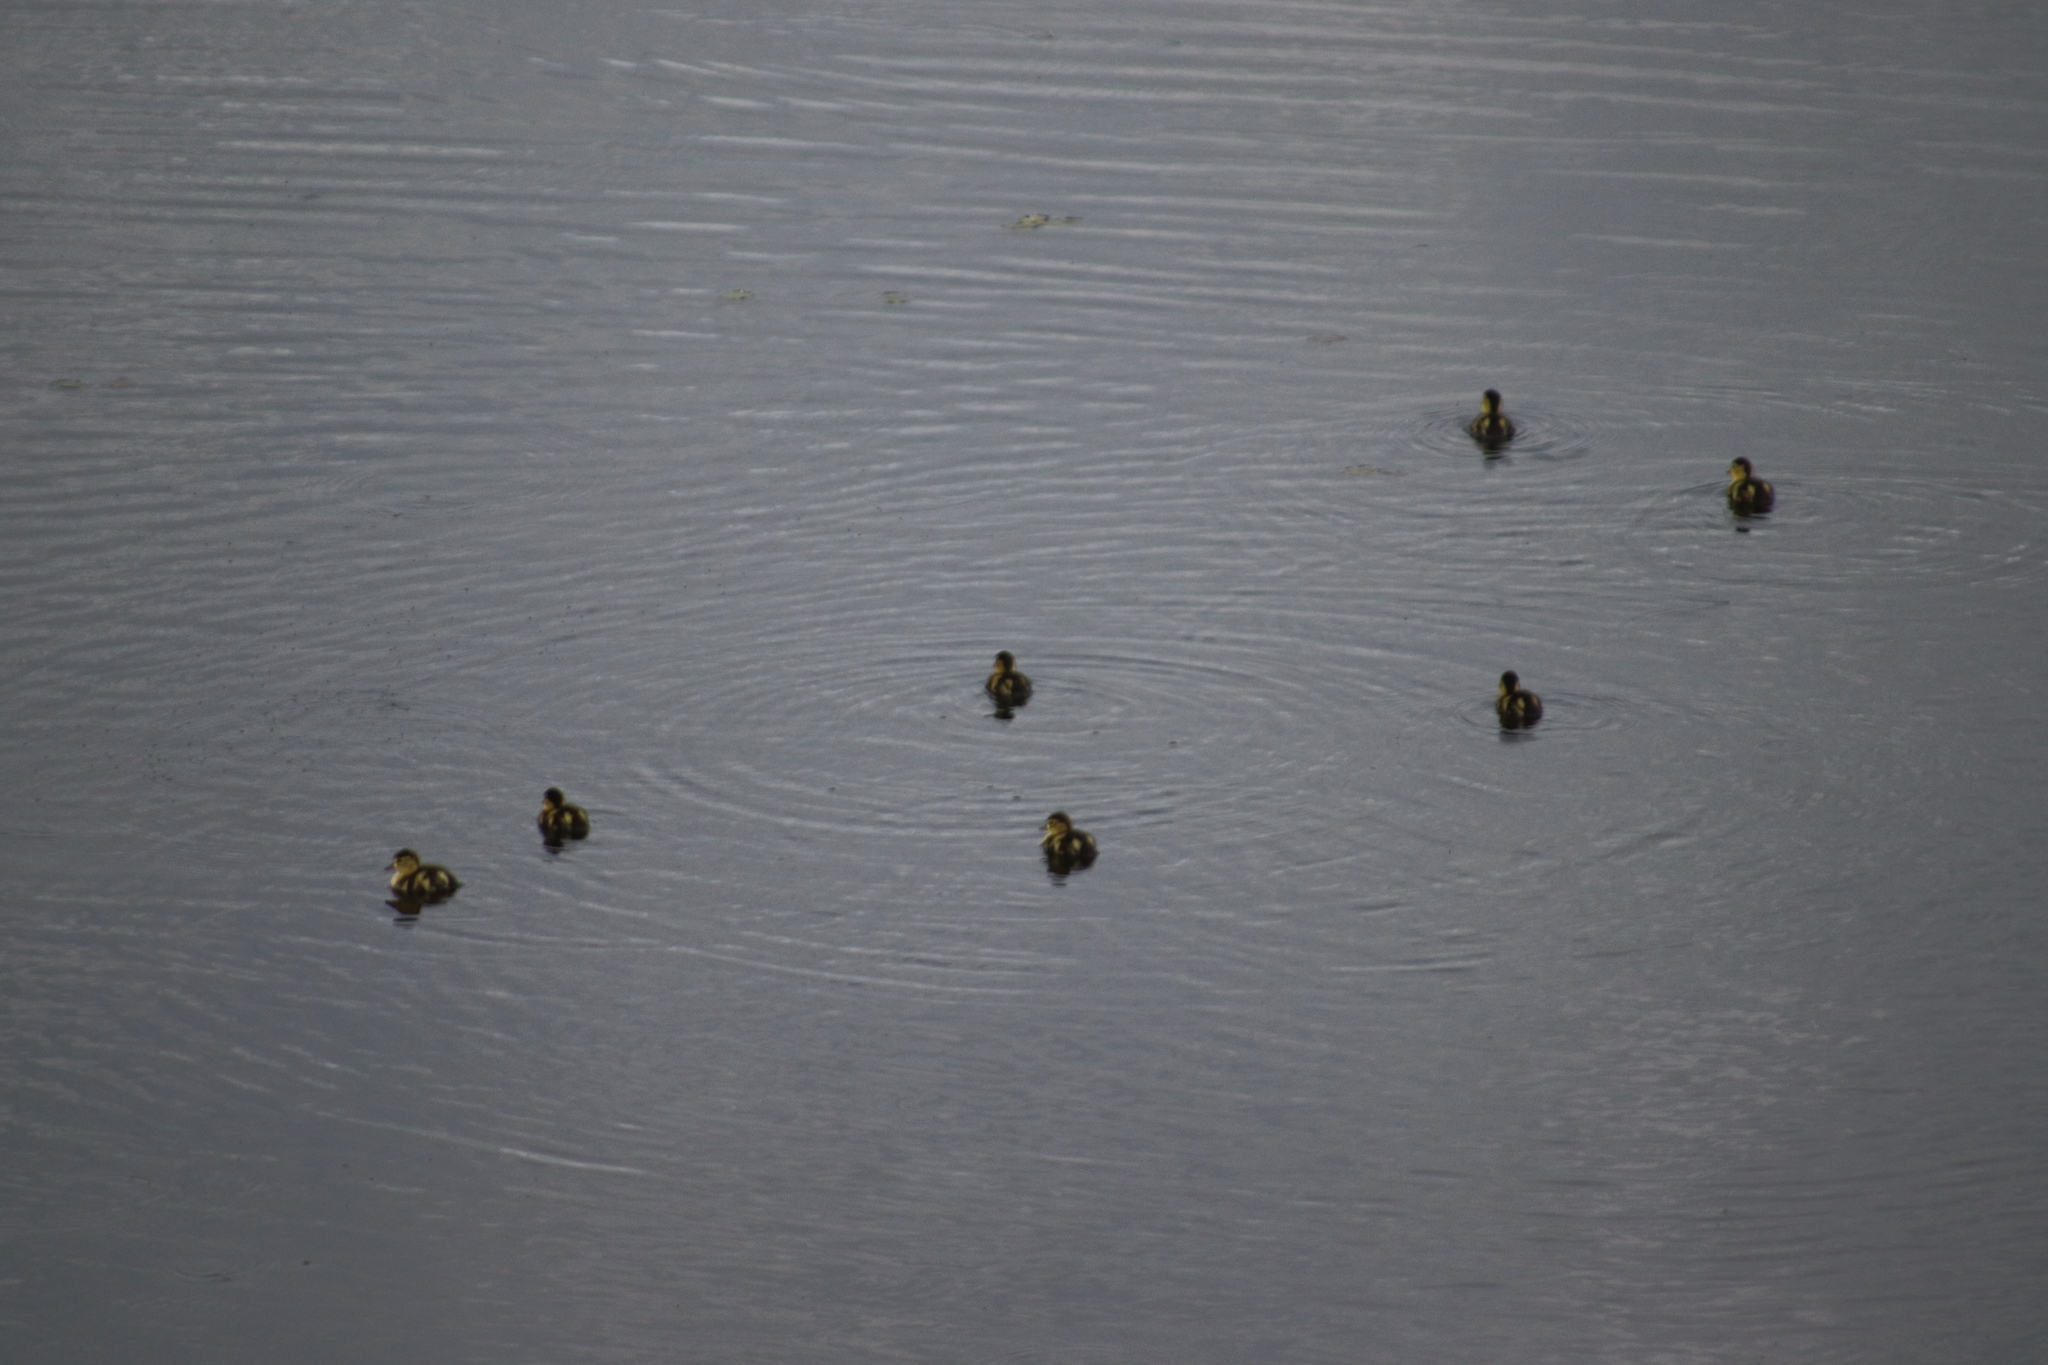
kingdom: Animalia
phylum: Chordata
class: Aves
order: Anseriformes
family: Anatidae
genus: Aythya
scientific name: Aythya collaris
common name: Ring-necked duck
